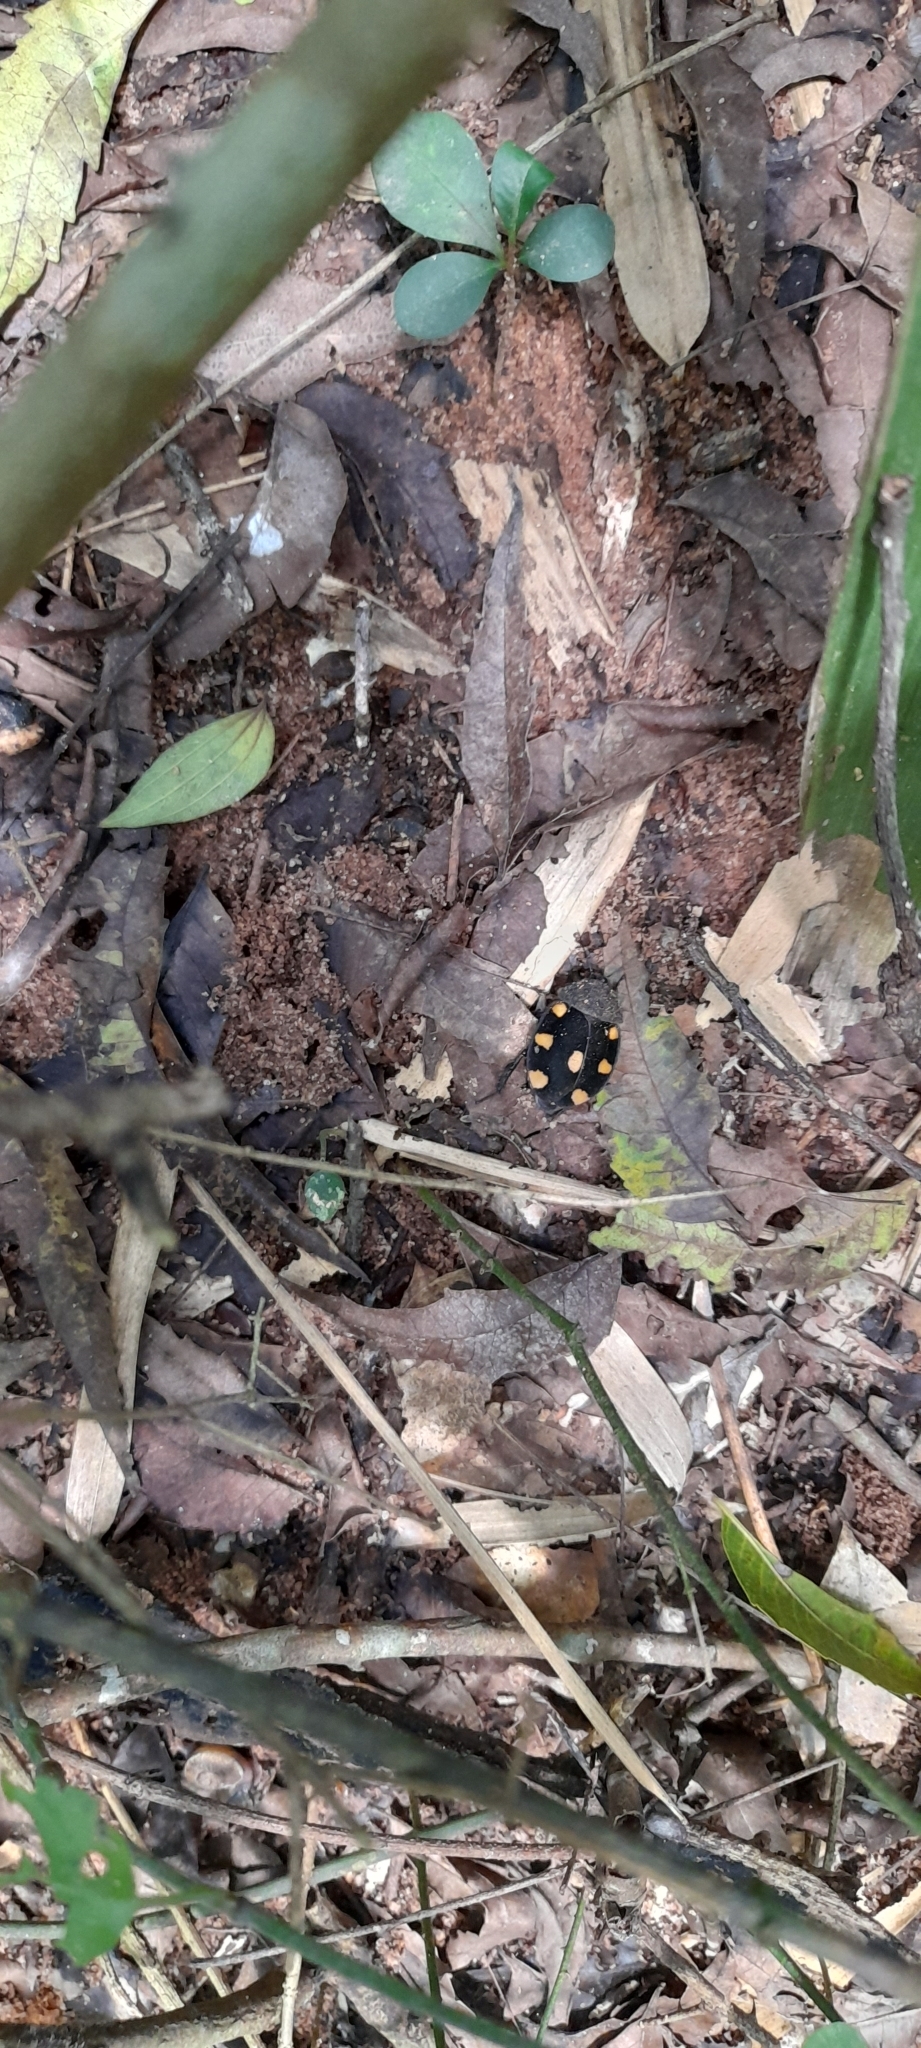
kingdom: Animalia
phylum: Arthropoda
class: Insecta
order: Blattodea
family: Corydiidae
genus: Therea
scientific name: Therea regularis
